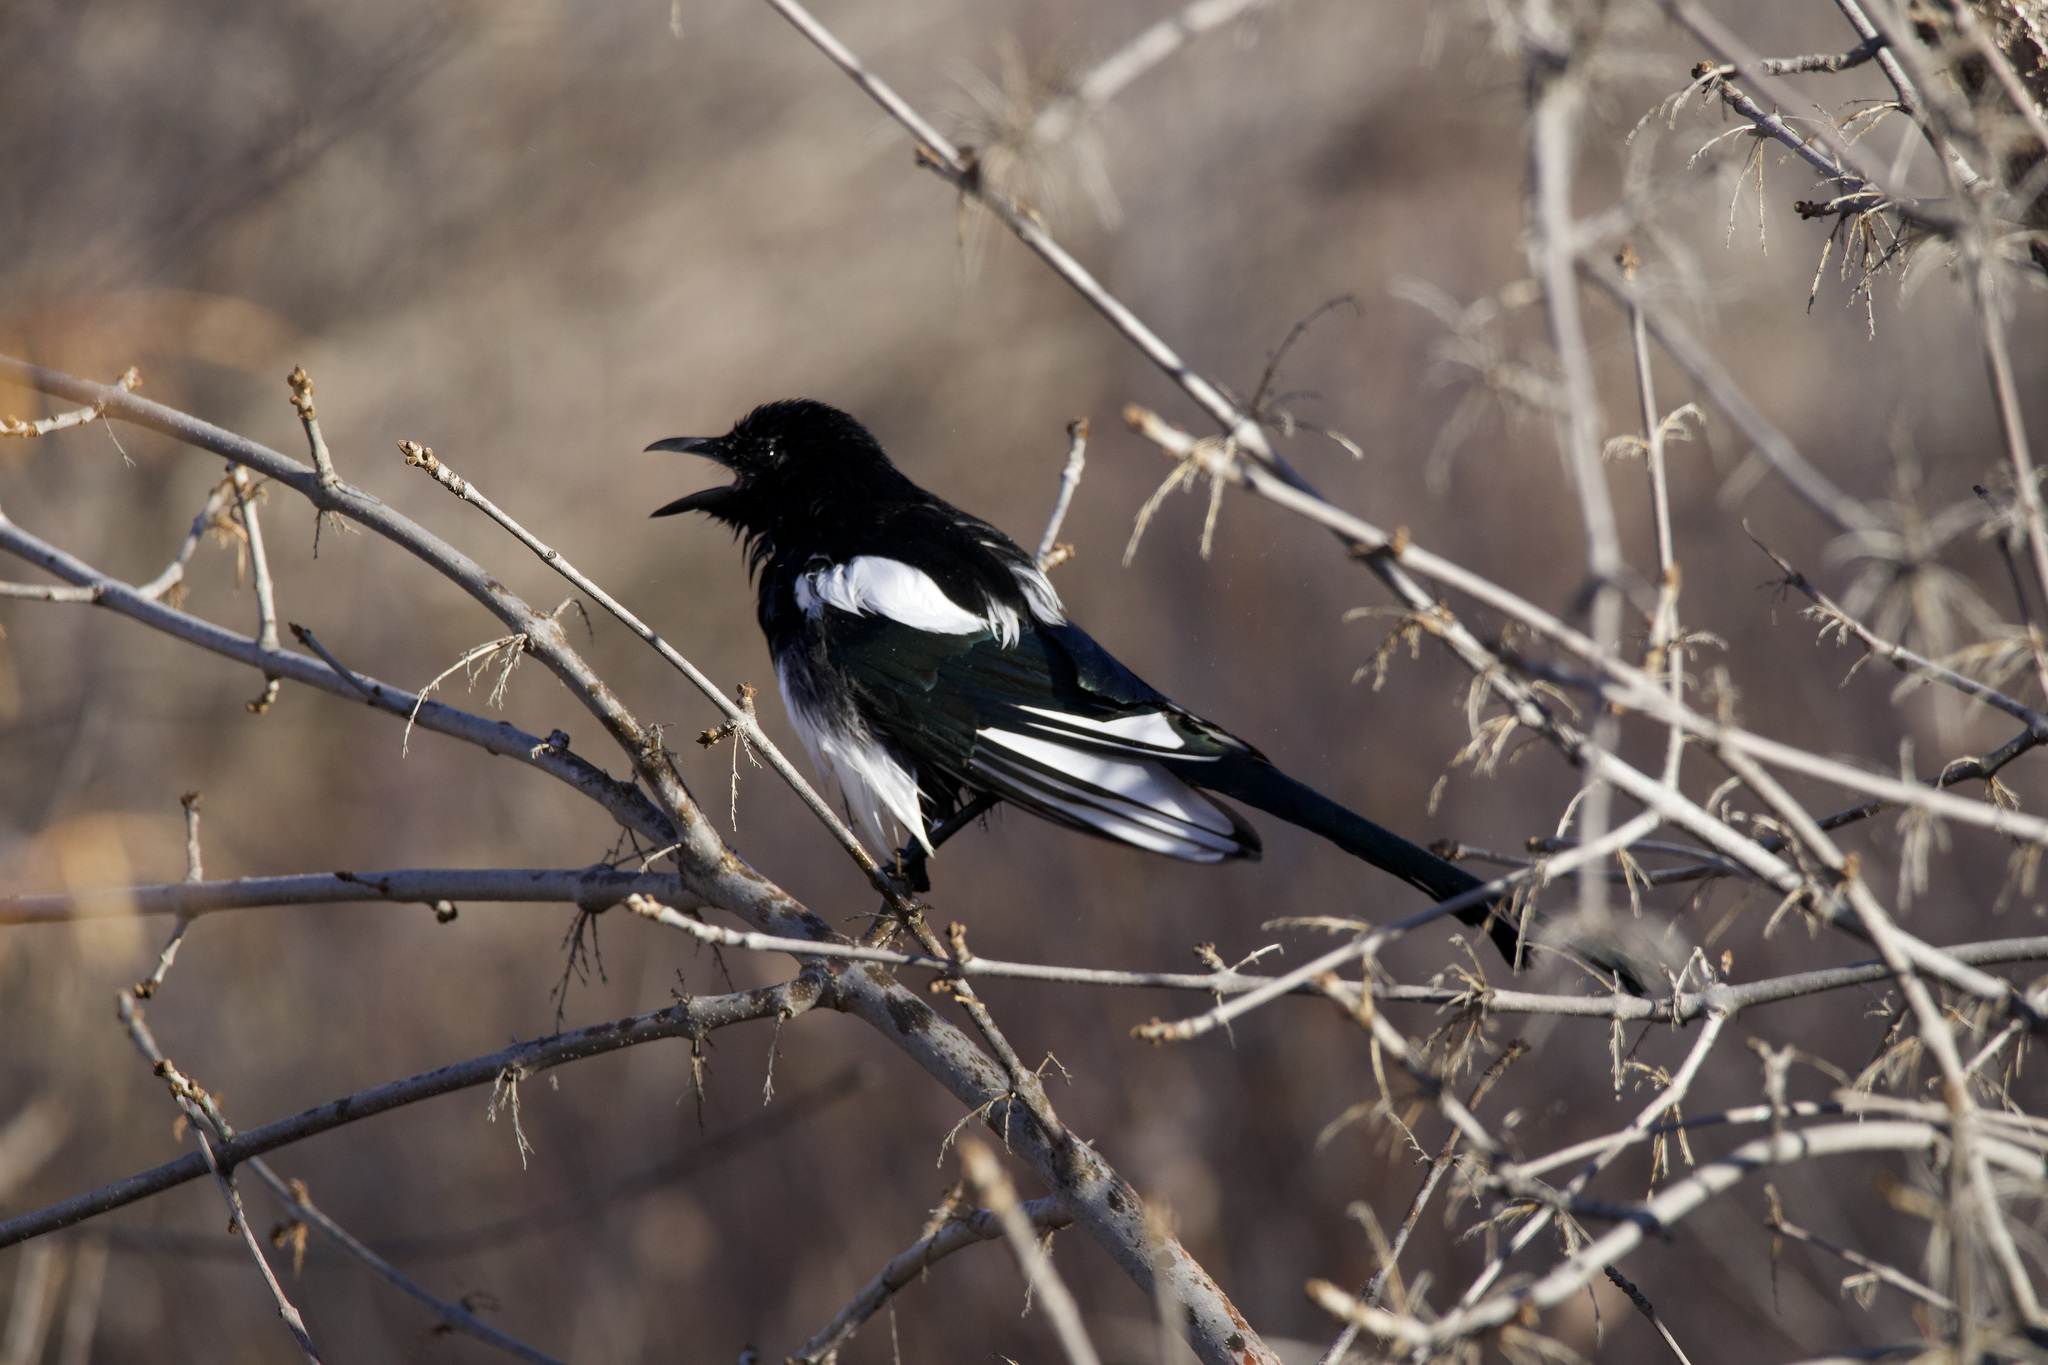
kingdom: Animalia
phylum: Chordata
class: Aves
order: Passeriformes
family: Corvidae
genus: Pica
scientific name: Pica hudsonia
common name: Black-billed magpie
